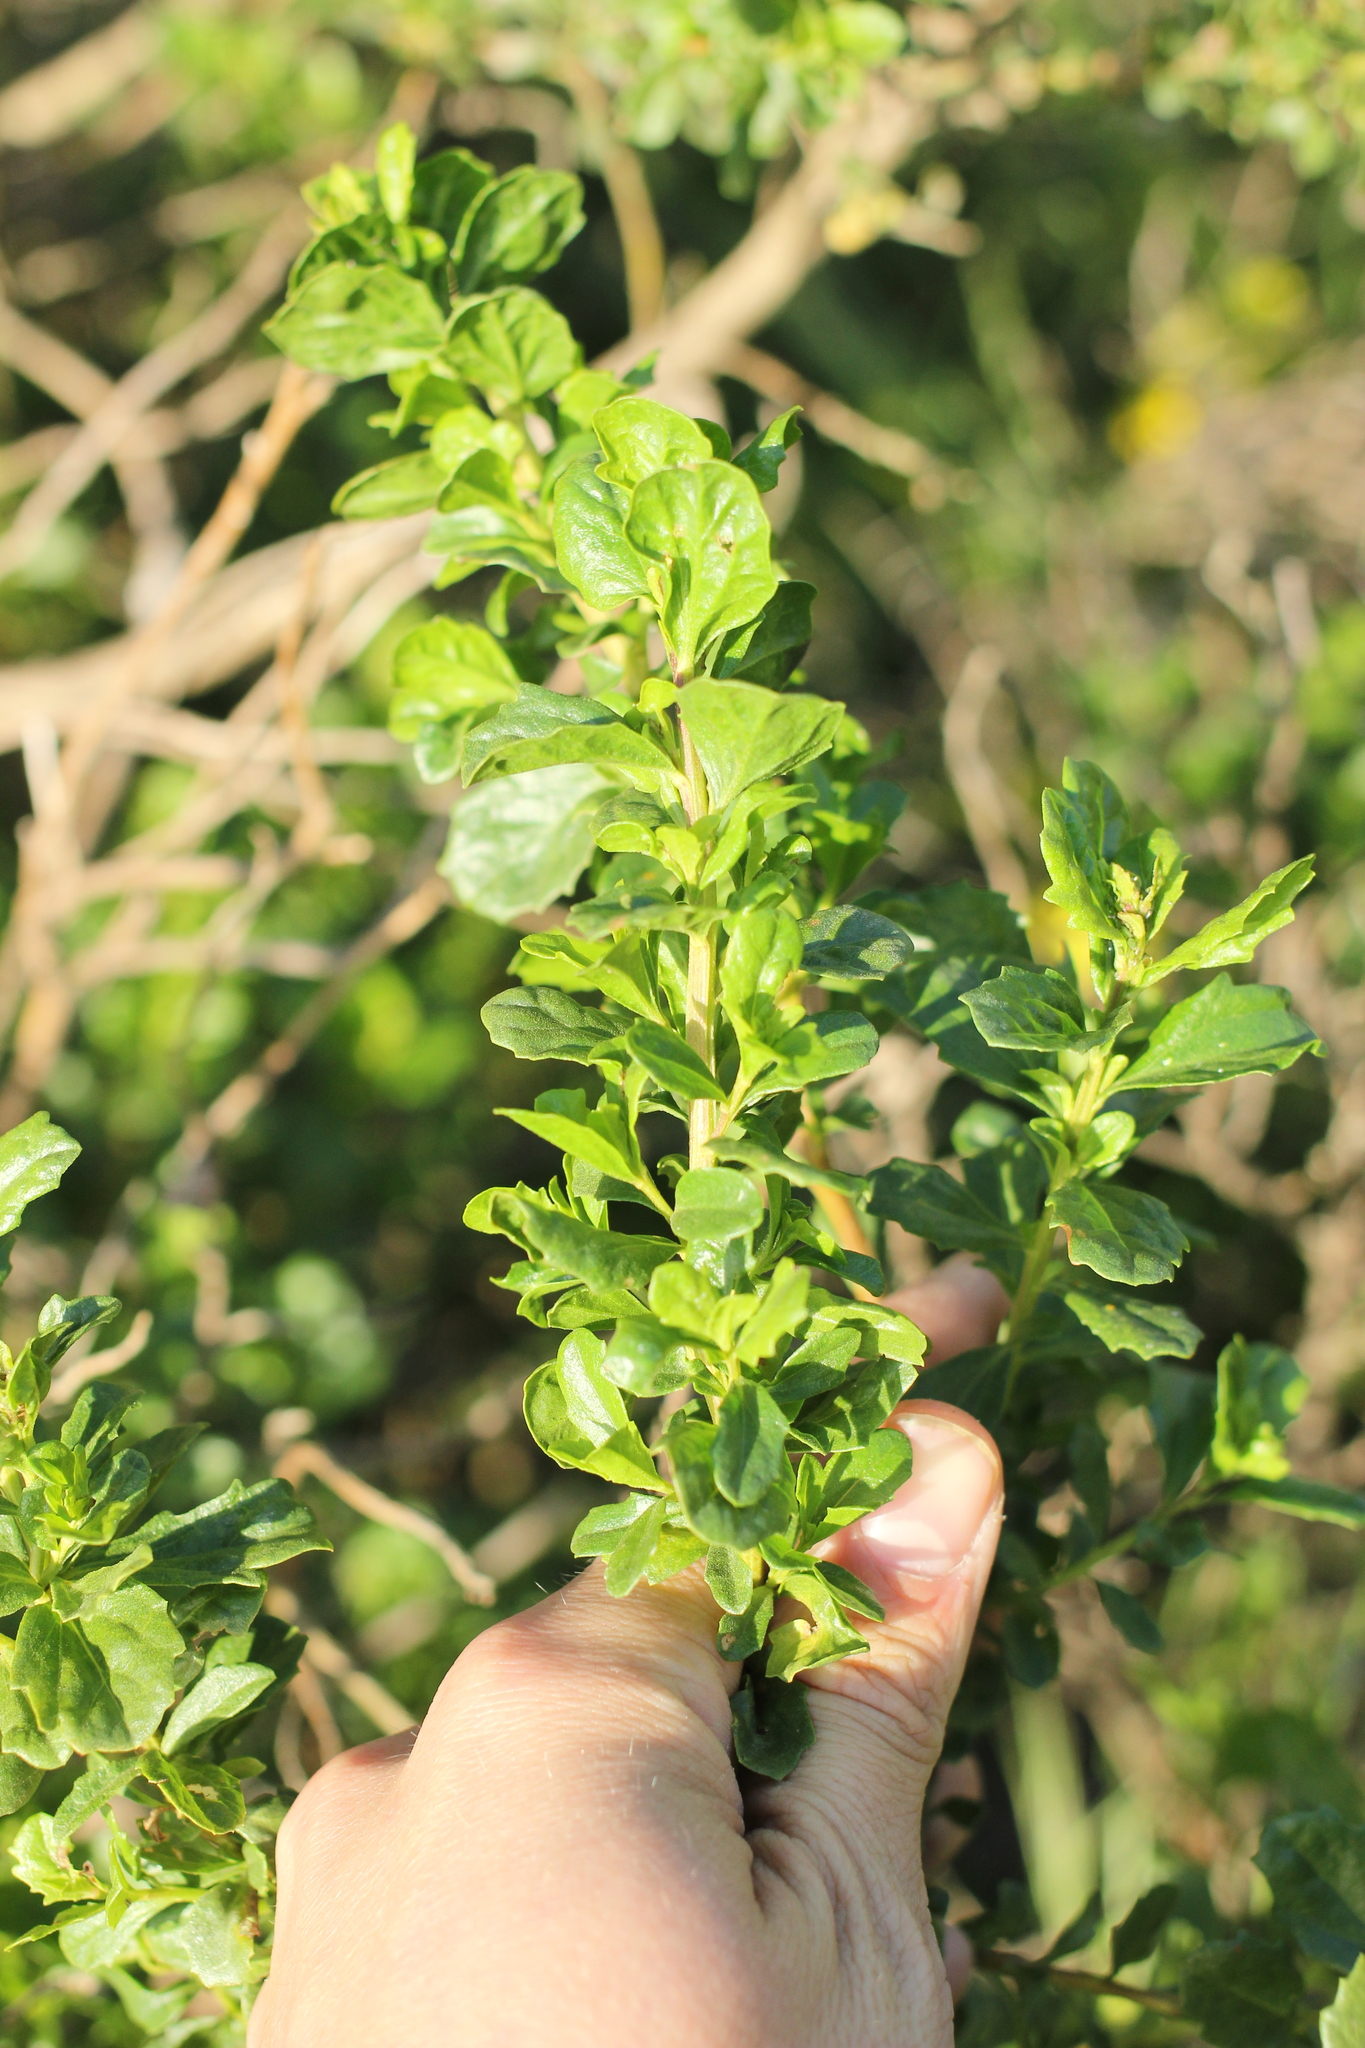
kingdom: Plantae
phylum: Tracheophyta
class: Magnoliopsida
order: Asterales
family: Asteraceae
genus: Baccharis
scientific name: Baccharis pilularis
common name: Coyotebrush
